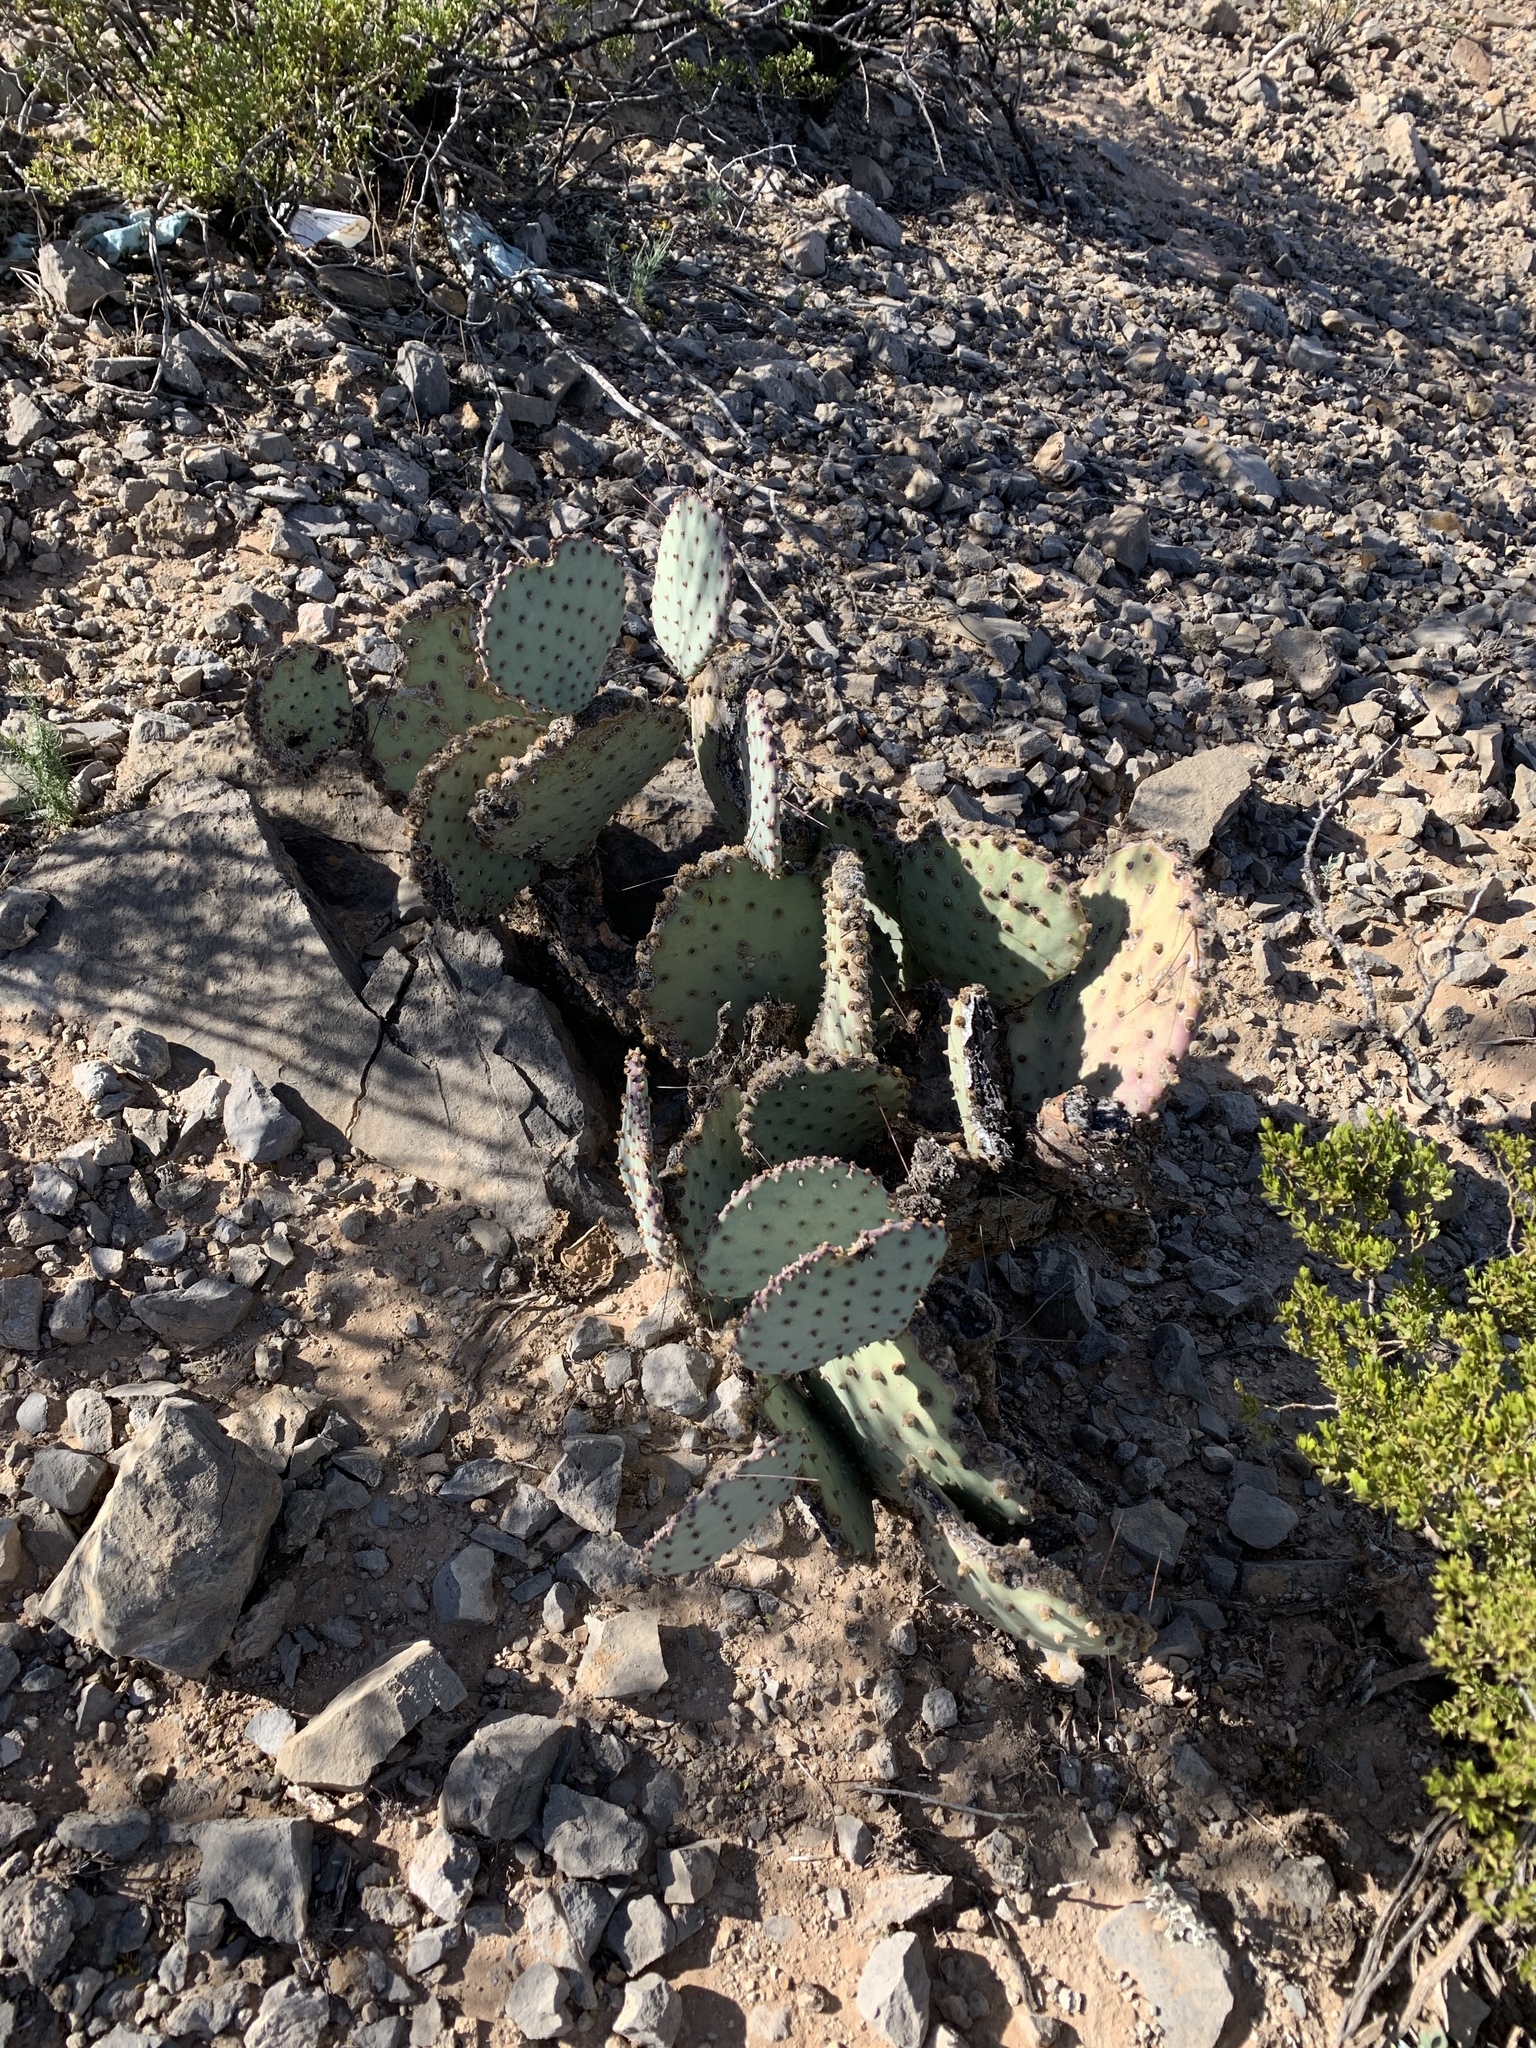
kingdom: Plantae
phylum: Tracheophyta
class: Magnoliopsida
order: Caryophyllales
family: Cactaceae
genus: Opuntia
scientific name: Opuntia macrocentra
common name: Purple prickly-pear
